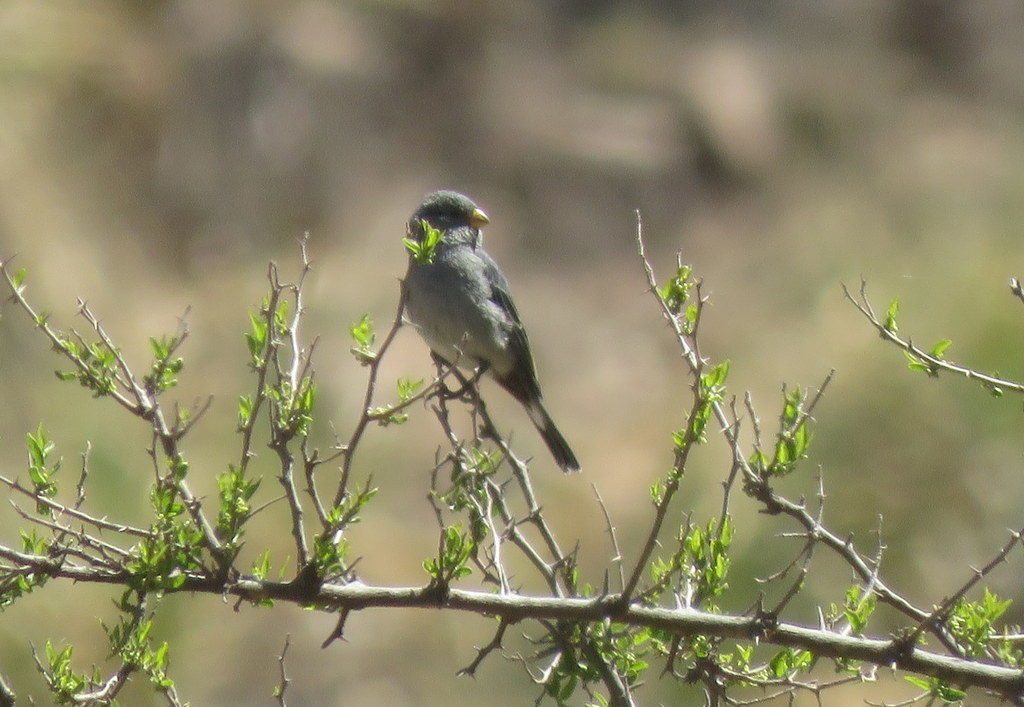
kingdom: Animalia
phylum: Chordata
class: Aves
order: Passeriformes
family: Thraupidae
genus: Catamenia
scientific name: Catamenia analis
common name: Band-tailed seedeater
